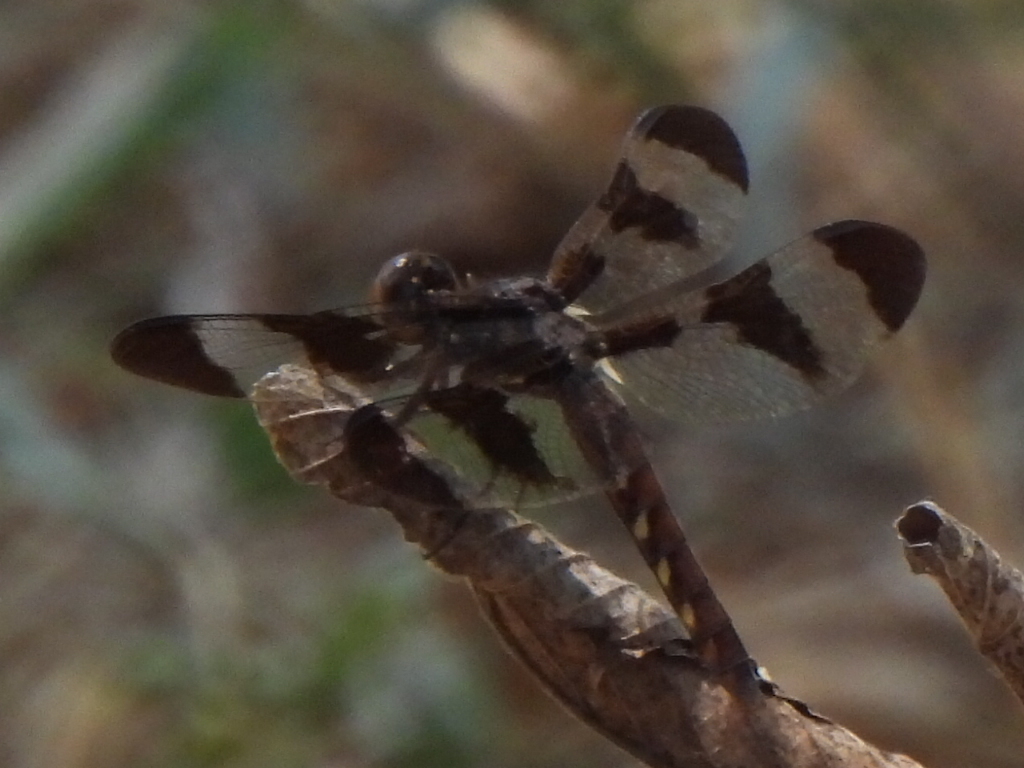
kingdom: Animalia
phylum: Arthropoda
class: Insecta
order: Odonata
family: Libellulidae
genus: Plathemis
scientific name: Plathemis lydia
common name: Common whitetail
